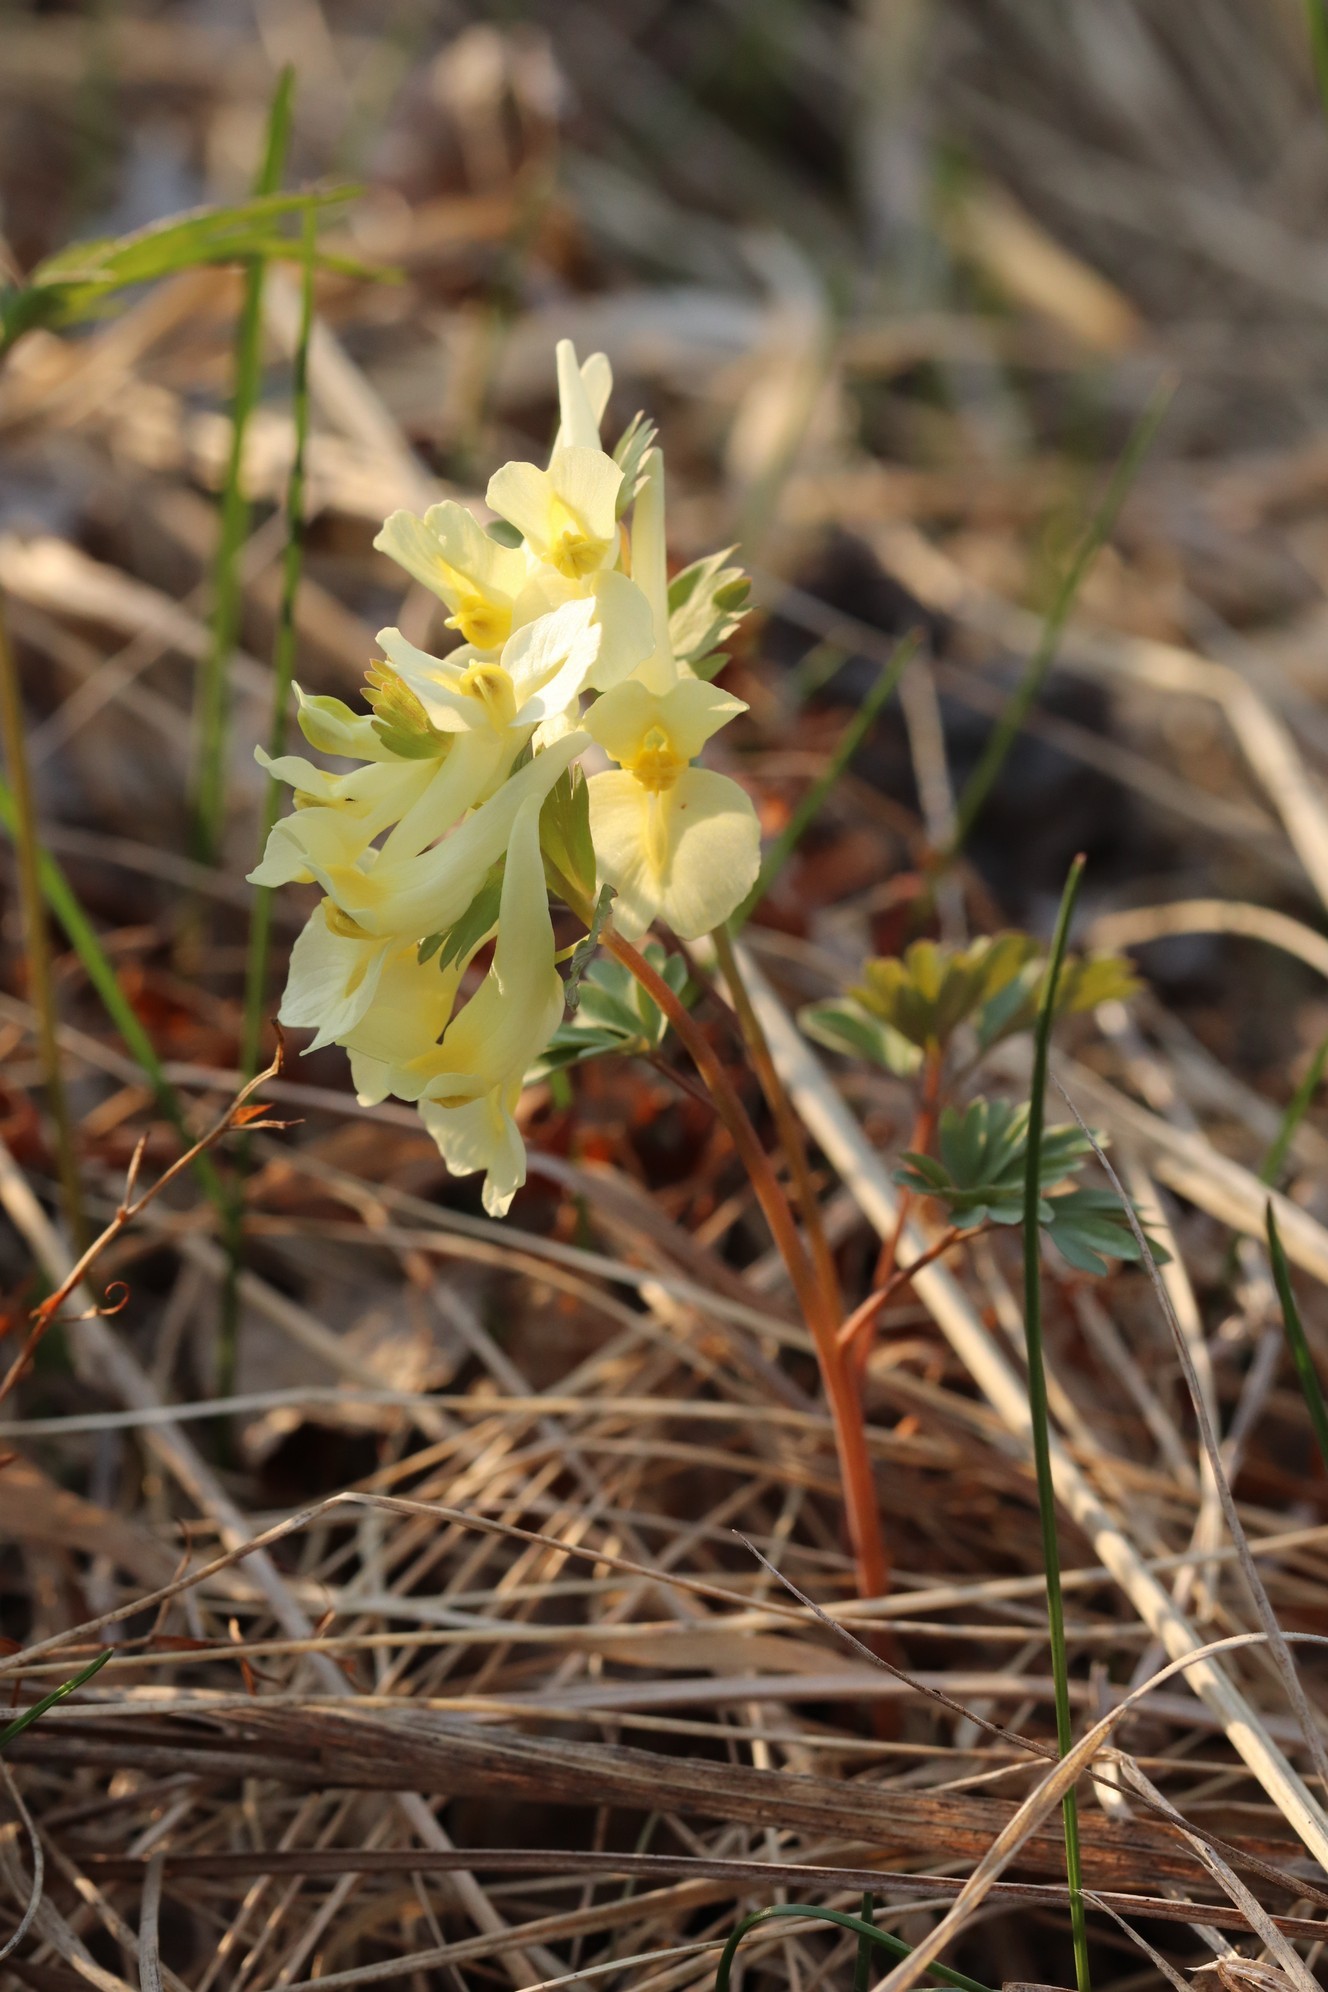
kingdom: Plantae
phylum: Tracheophyta
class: Magnoliopsida
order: Ranunculales
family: Papaveraceae
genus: Corydalis
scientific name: Corydalis bracteata
